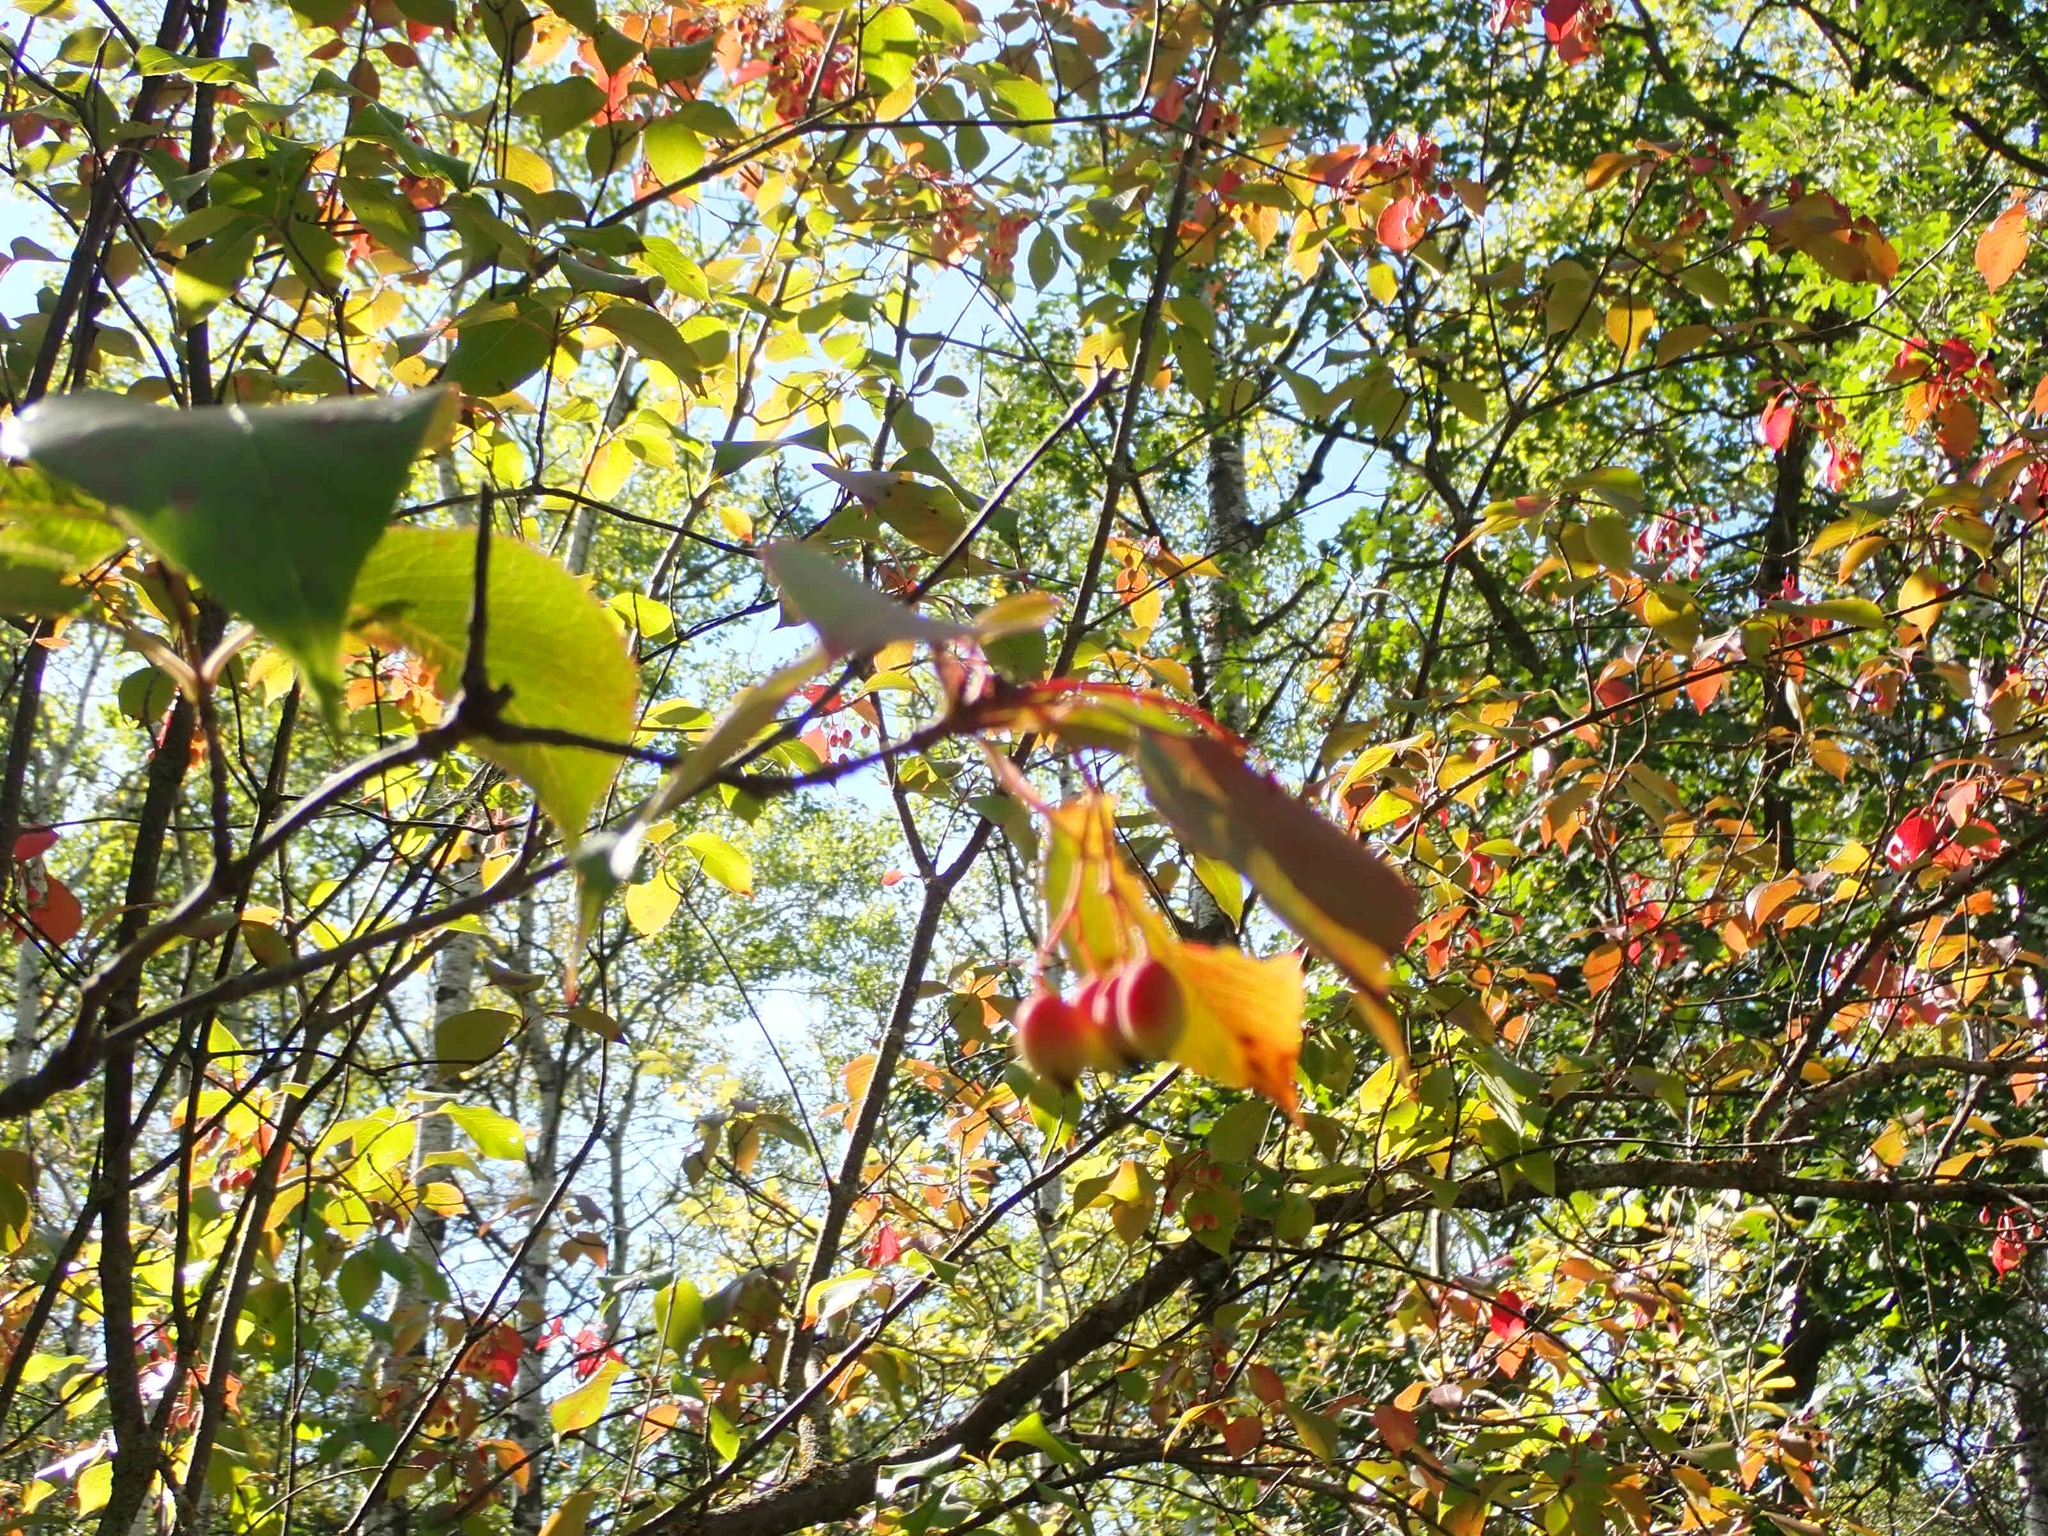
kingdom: Plantae
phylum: Tracheophyta
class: Magnoliopsida
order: Dipsacales
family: Viburnaceae
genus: Viburnum
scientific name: Viburnum lentago
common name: Black haw
